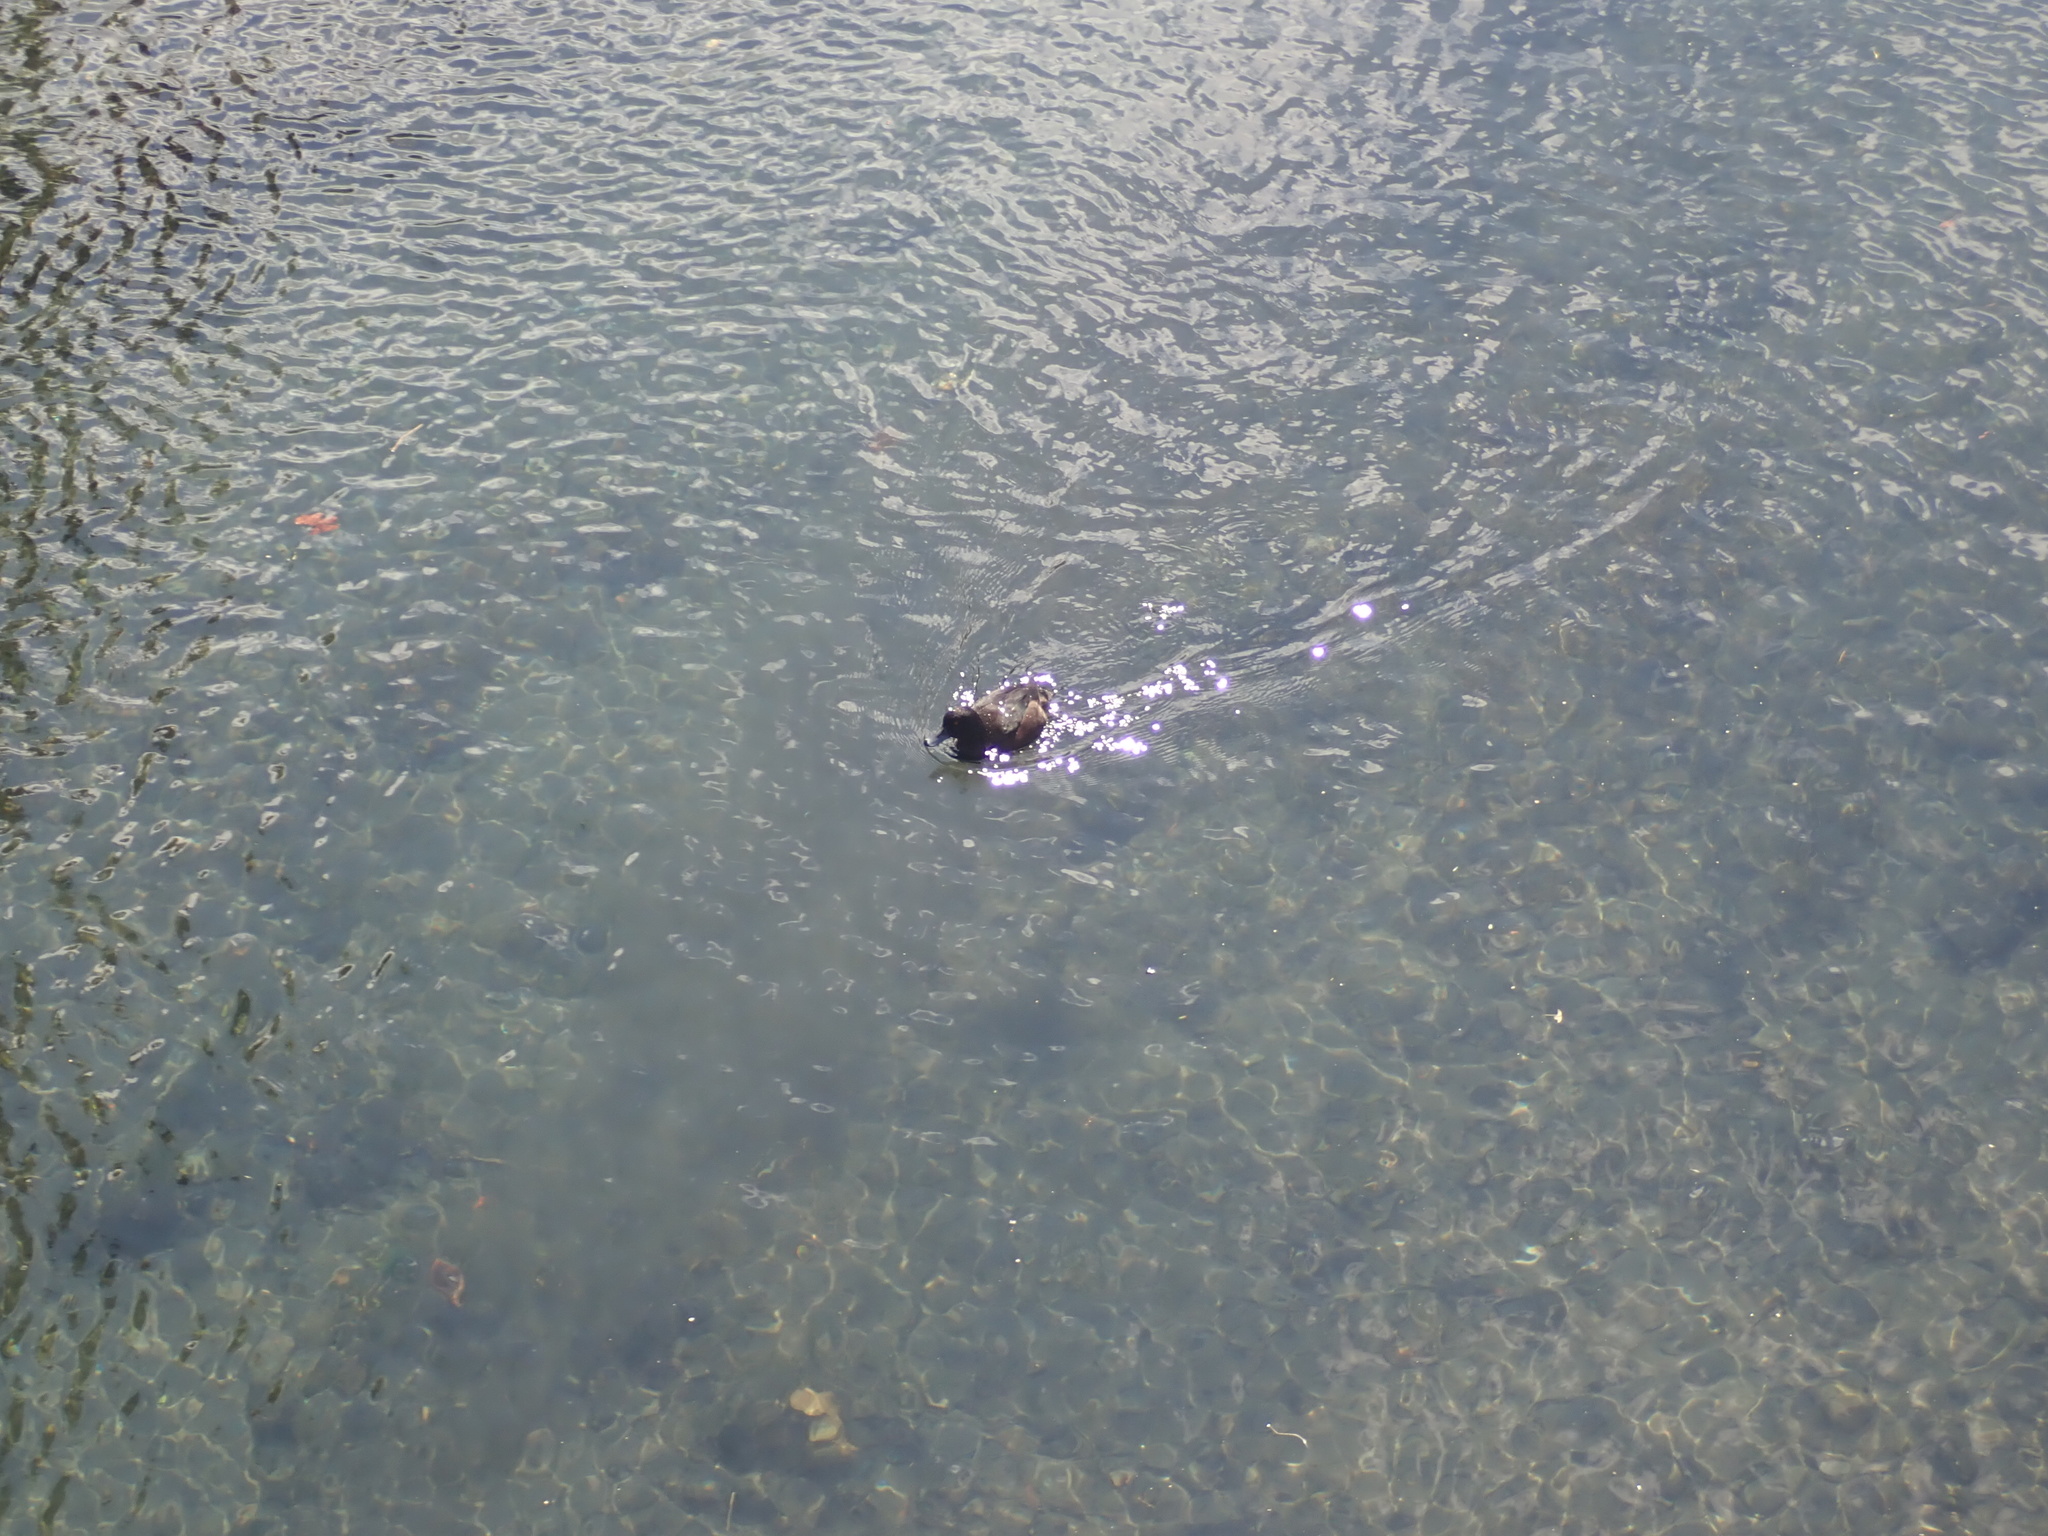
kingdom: Animalia
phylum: Chordata
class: Aves
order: Anseriformes
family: Anatidae
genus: Aythya
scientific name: Aythya novaeseelandiae
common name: New zealand scaup
